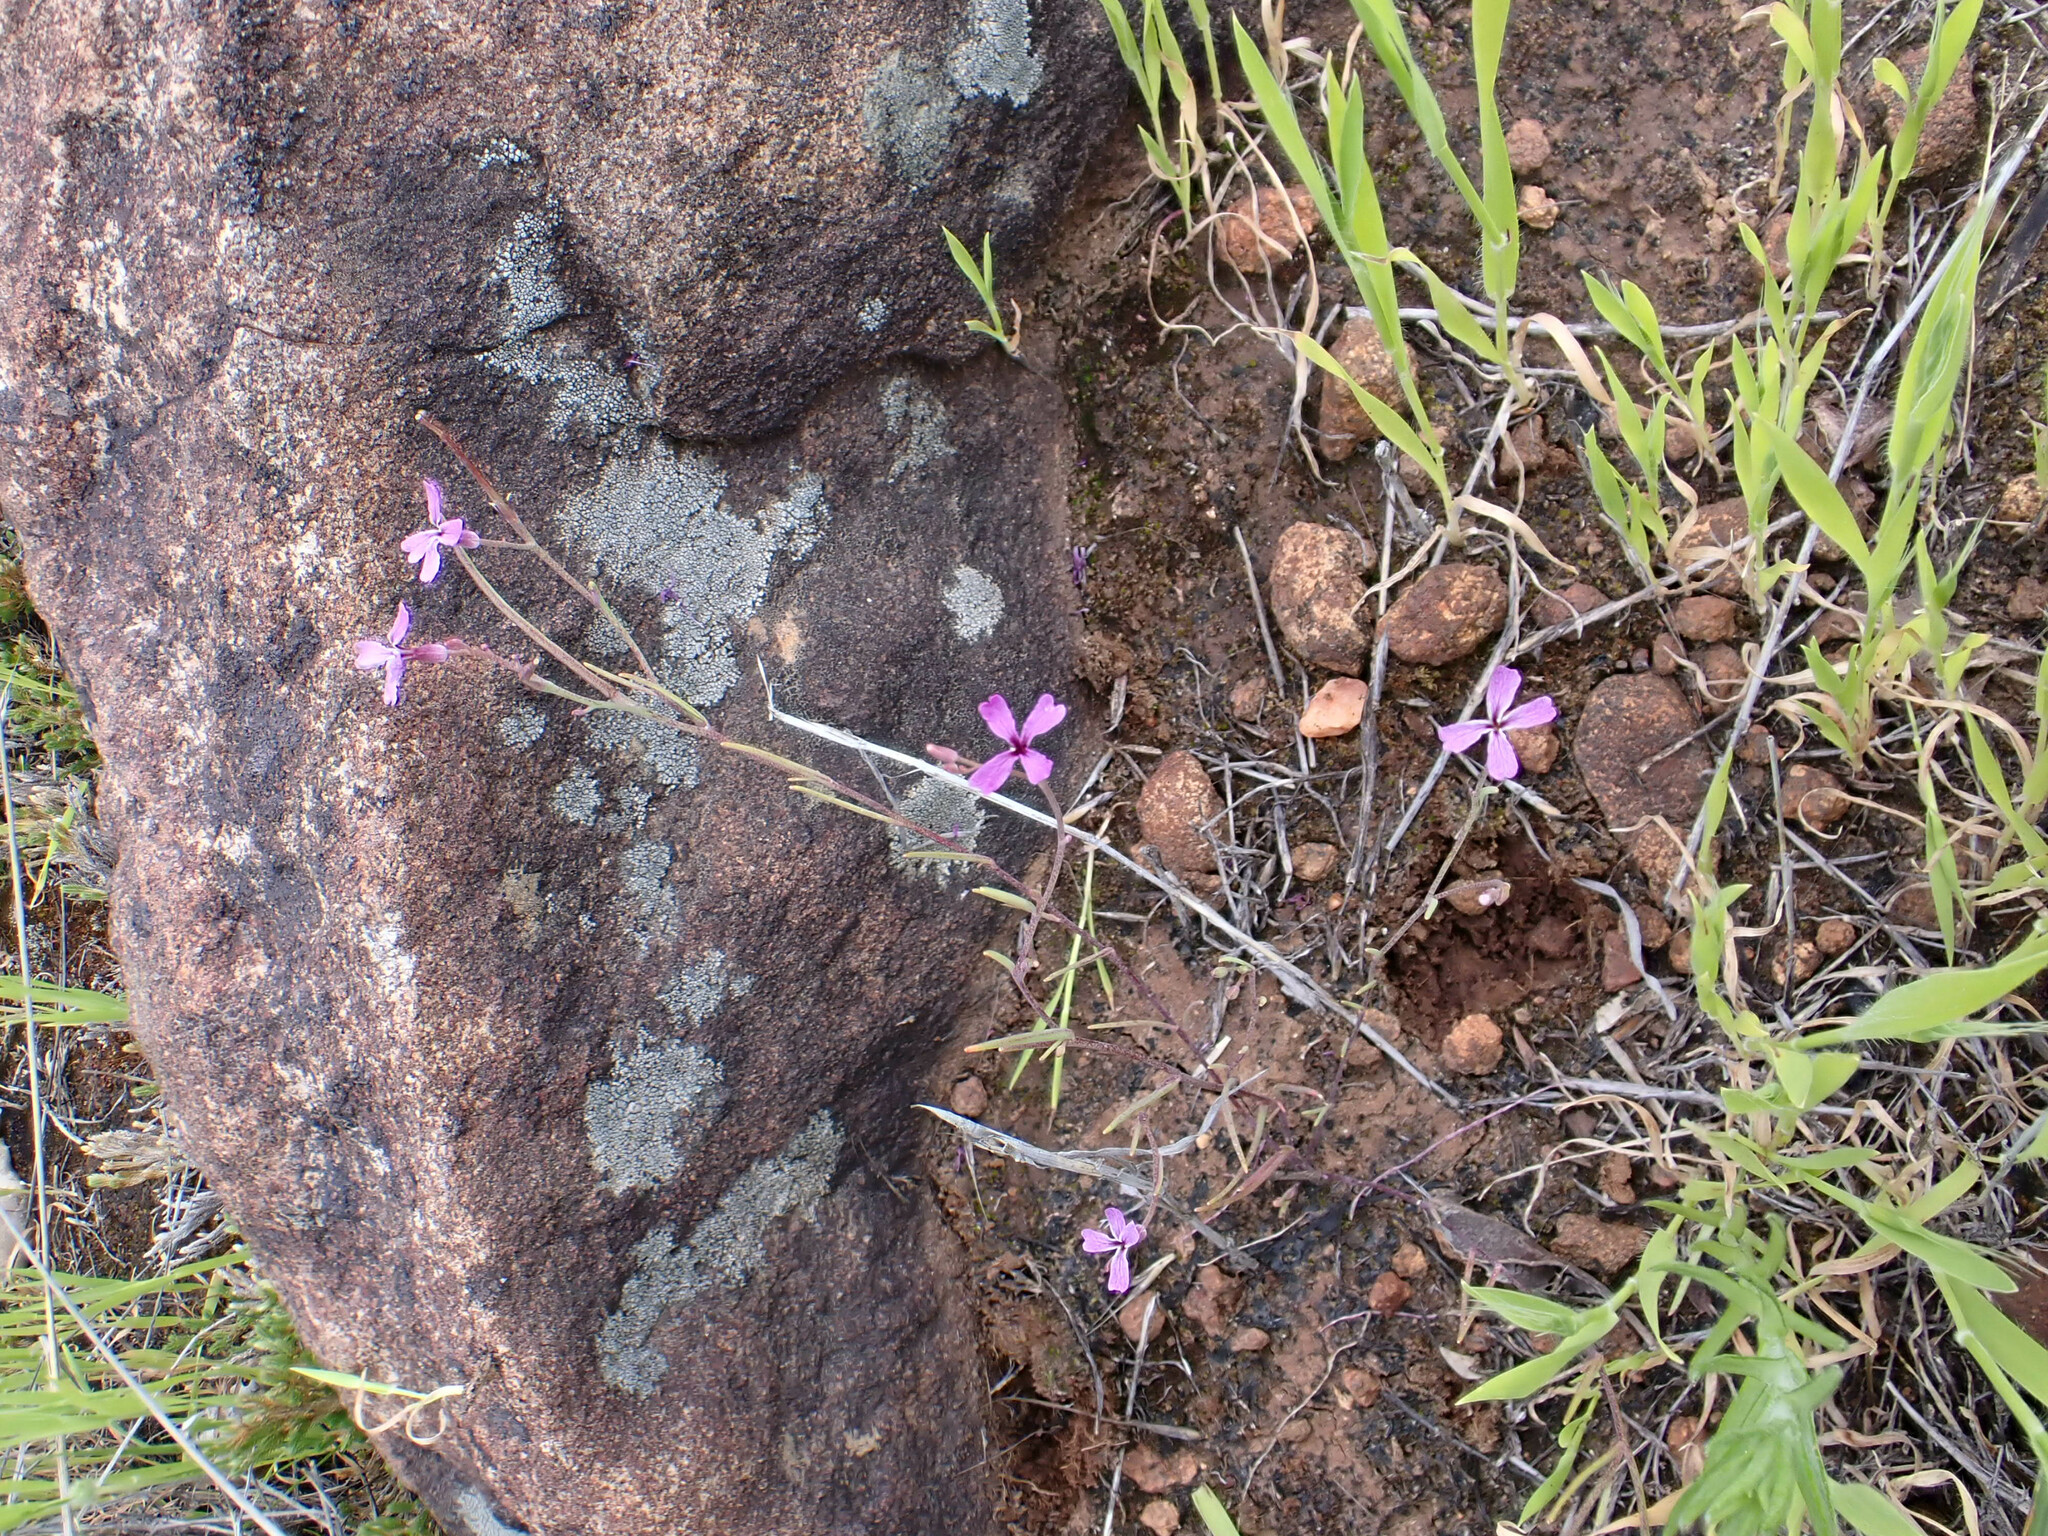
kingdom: Plantae
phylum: Tracheophyta
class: Magnoliopsida
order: Brassicales
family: Brassicaceae
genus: Streptanthus
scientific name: Streptanthus hammittii
